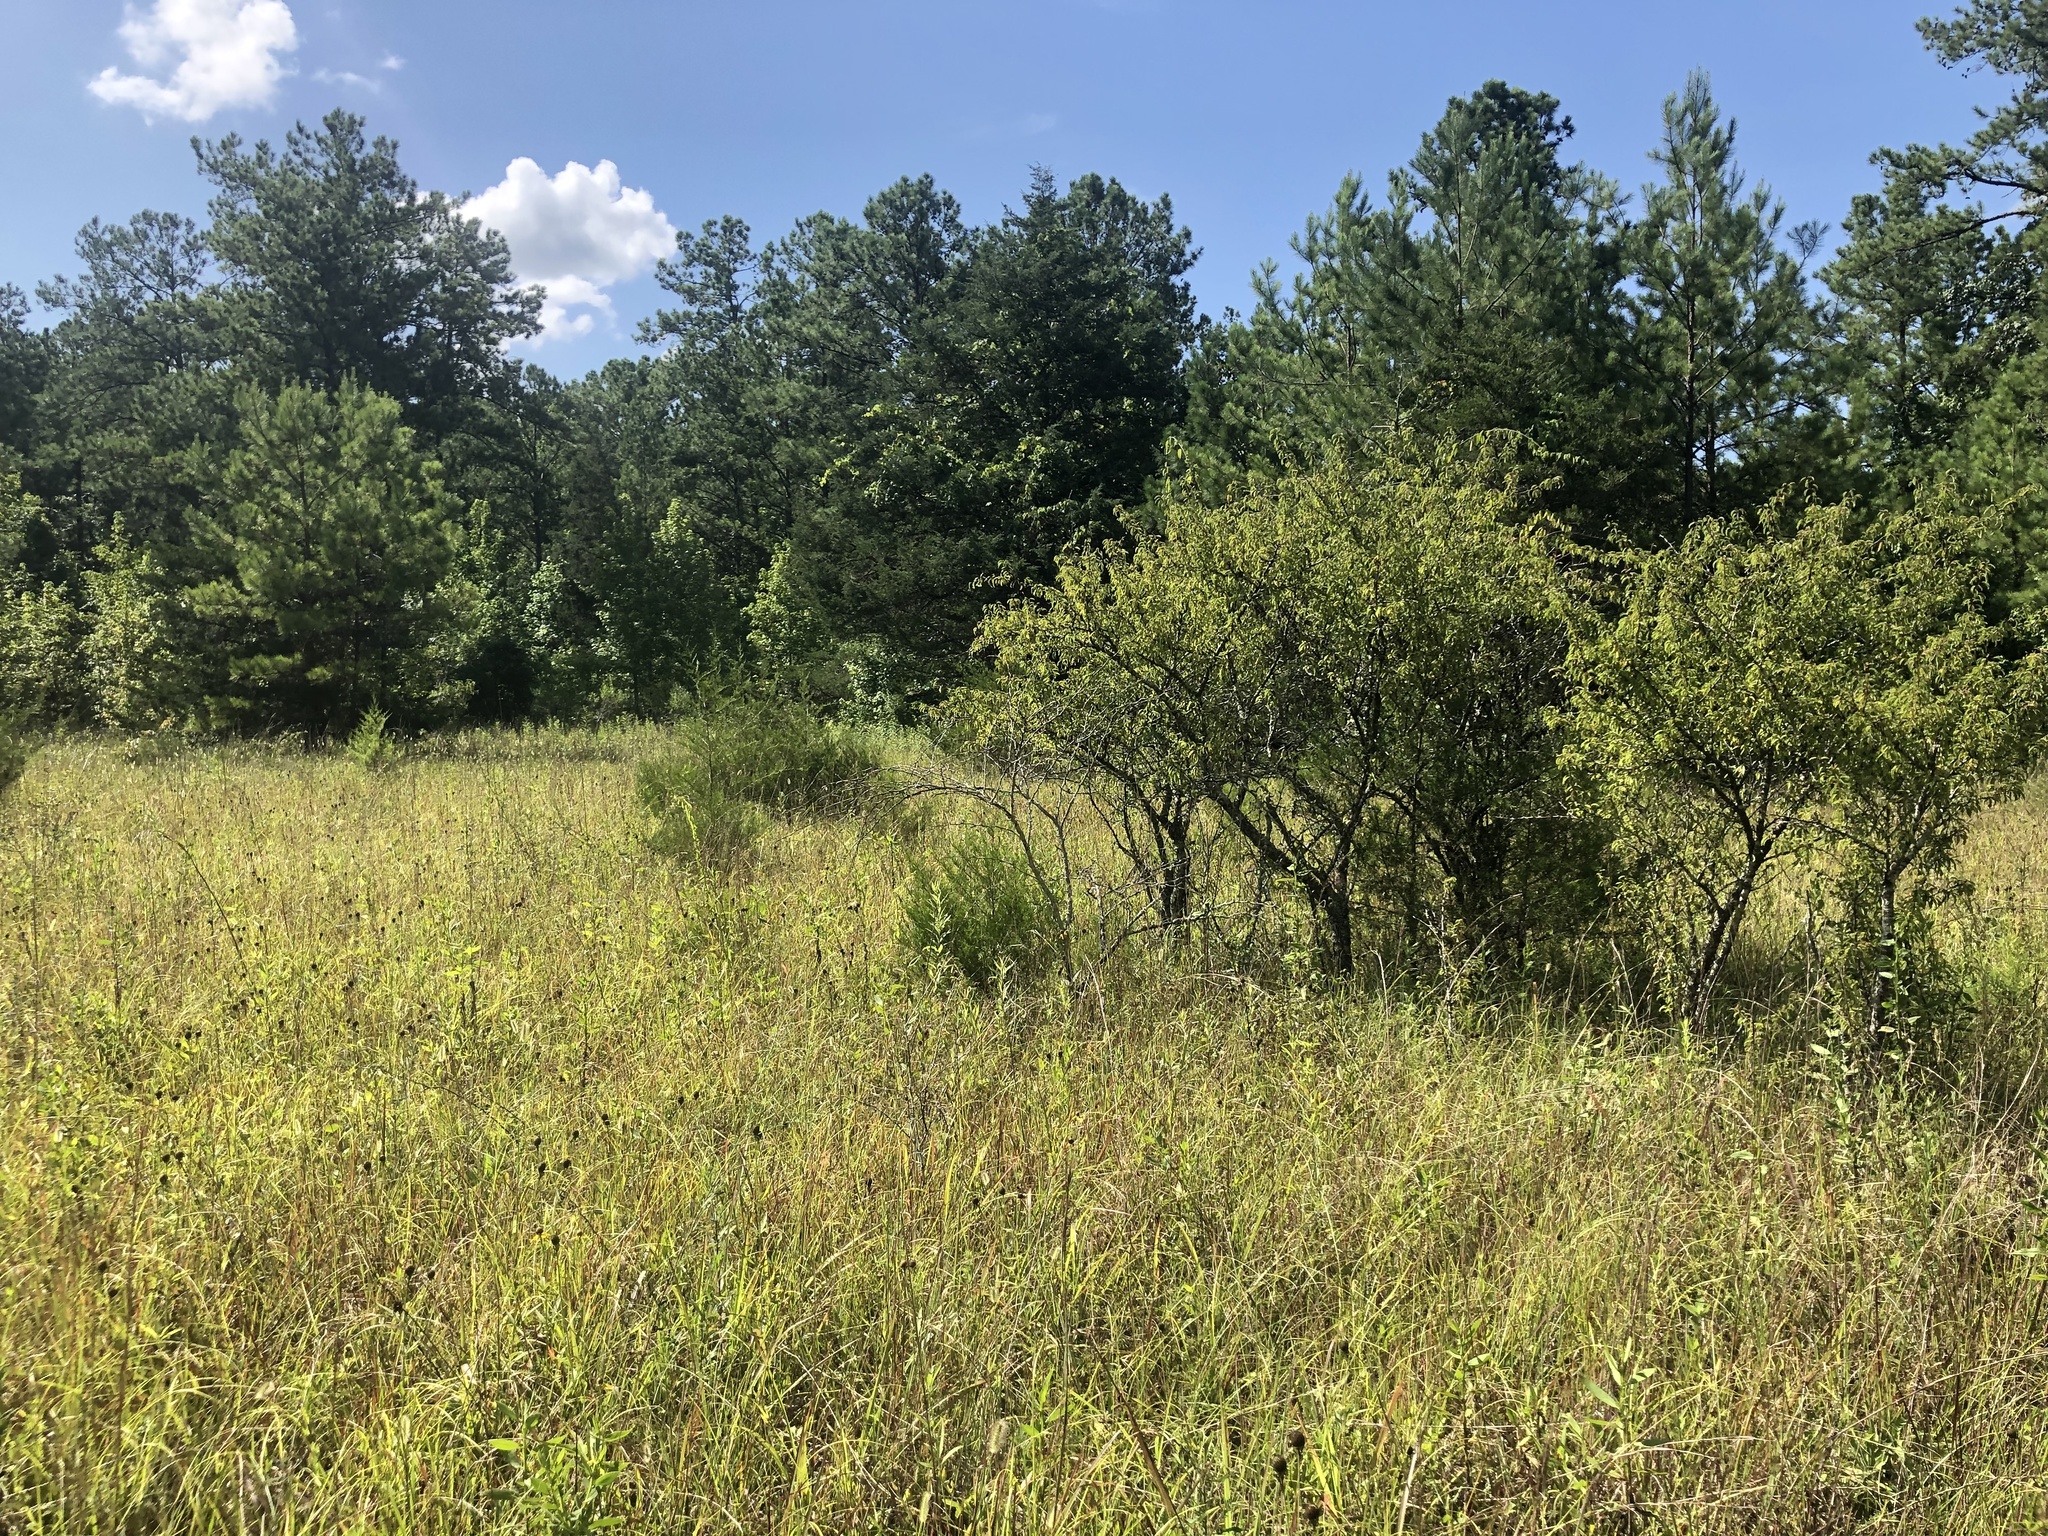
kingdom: Plantae
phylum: Tracheophyta
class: Magnoliopsida
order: Rosales
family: Rosaceae
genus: Prunus
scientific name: Prunus angustifolia
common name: Cherokee plum
